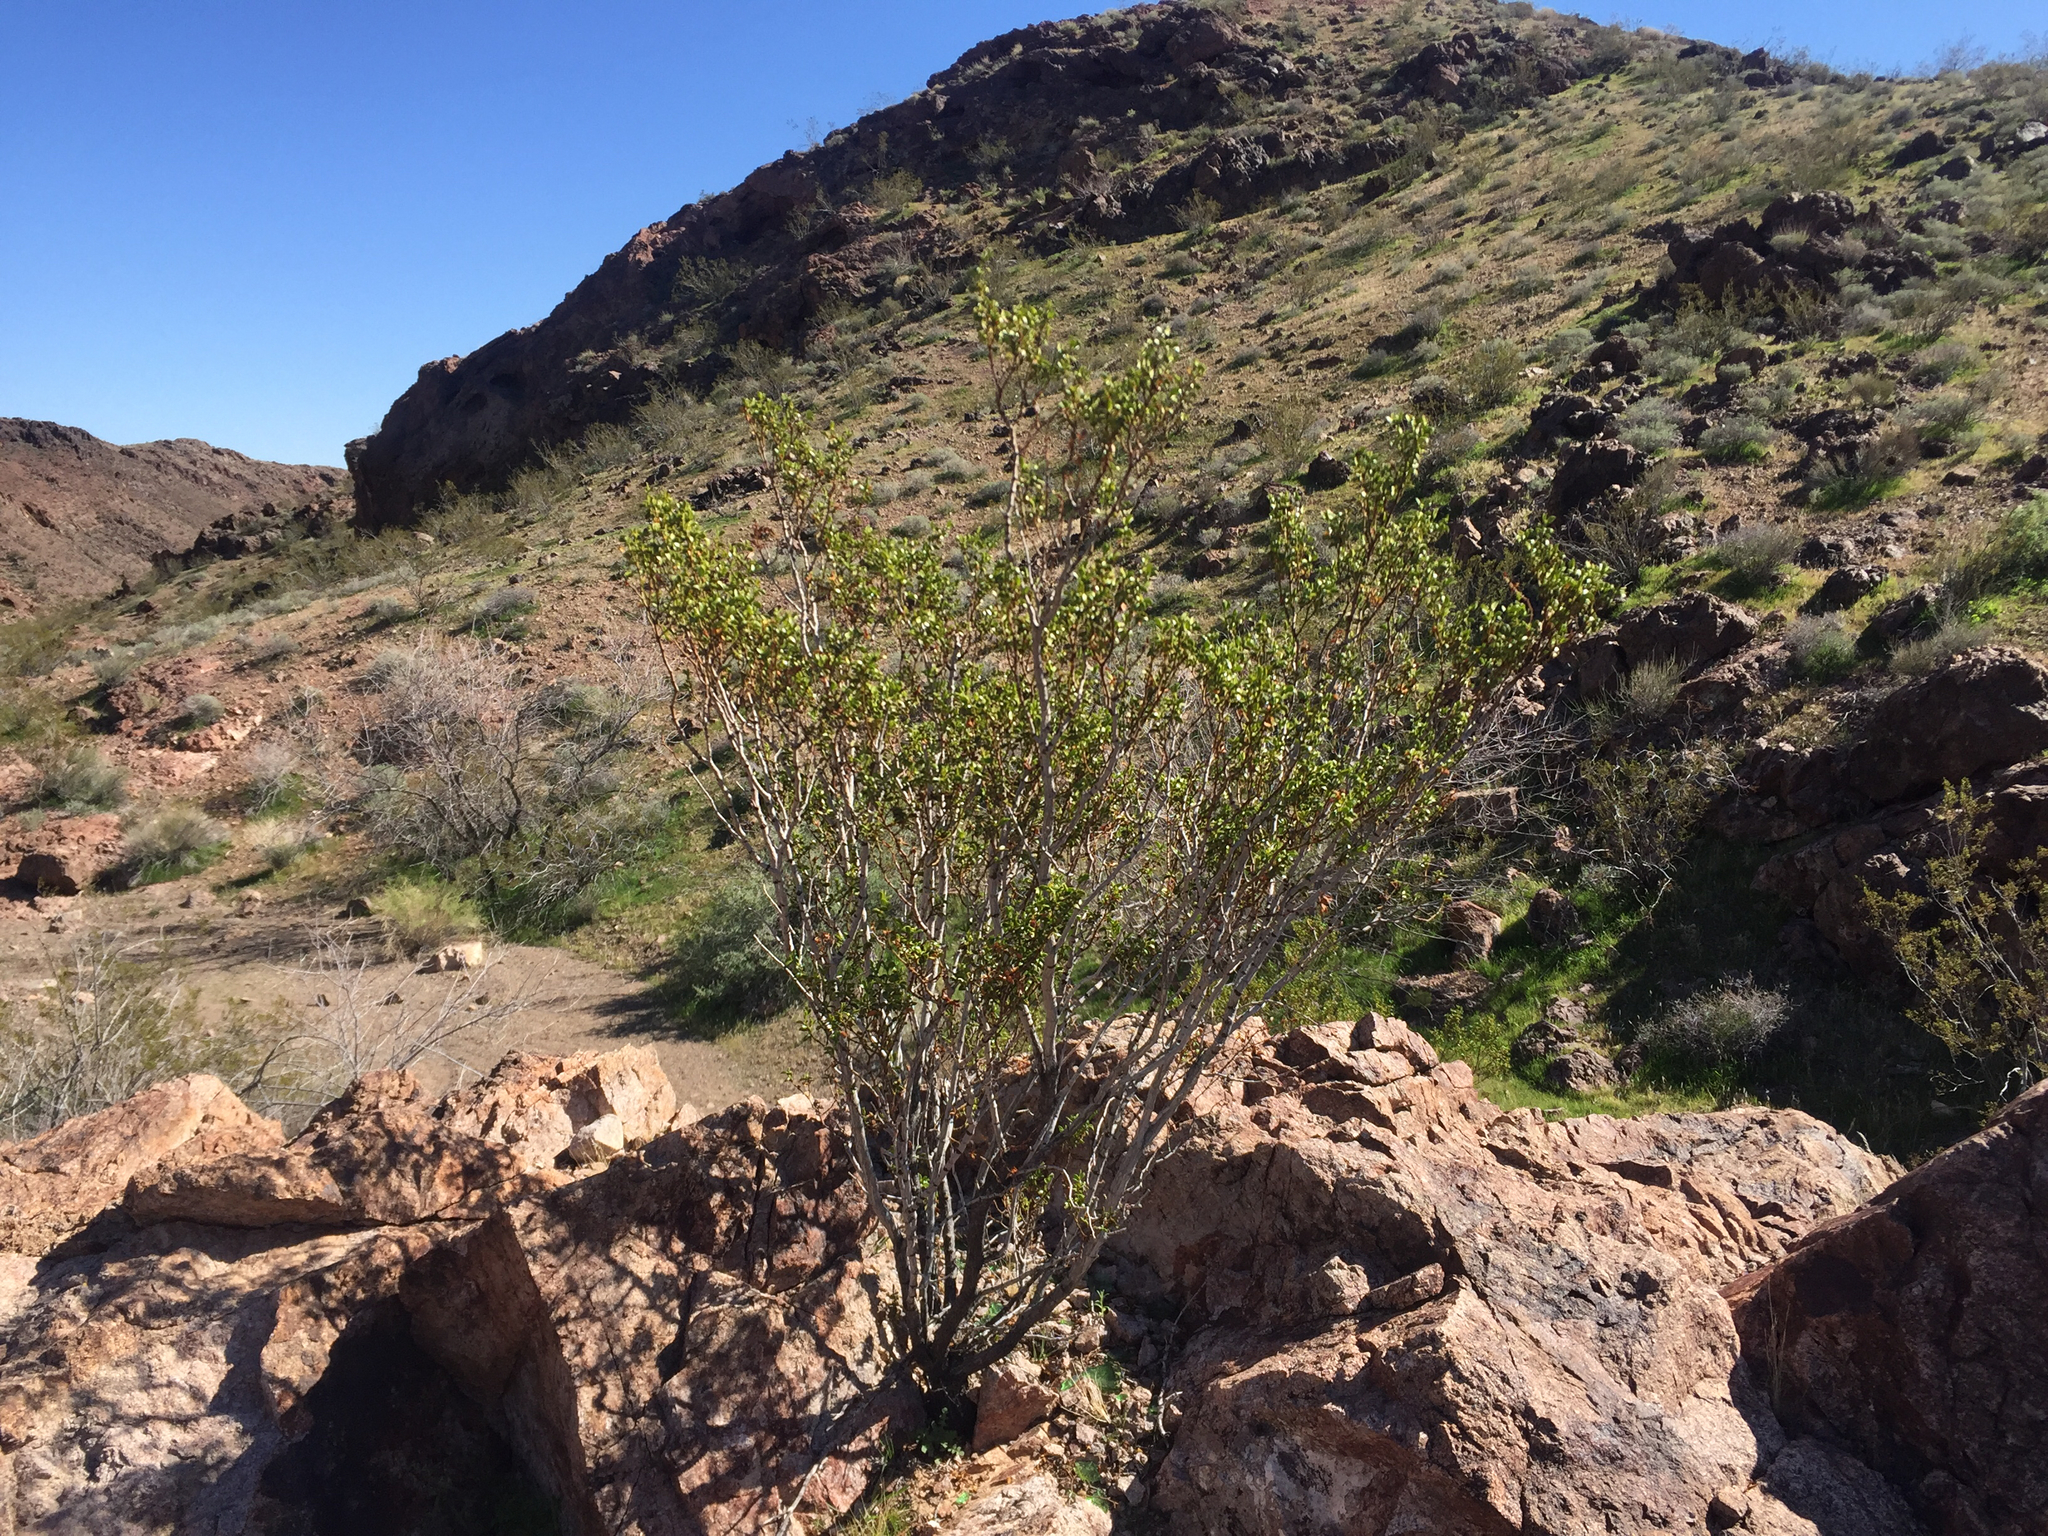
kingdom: Plantae
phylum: Tracheophyta
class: Magnoliopsida
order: Zygophyllales
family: Zygophyllaceae
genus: Larrea
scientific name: Larrea tridentata
